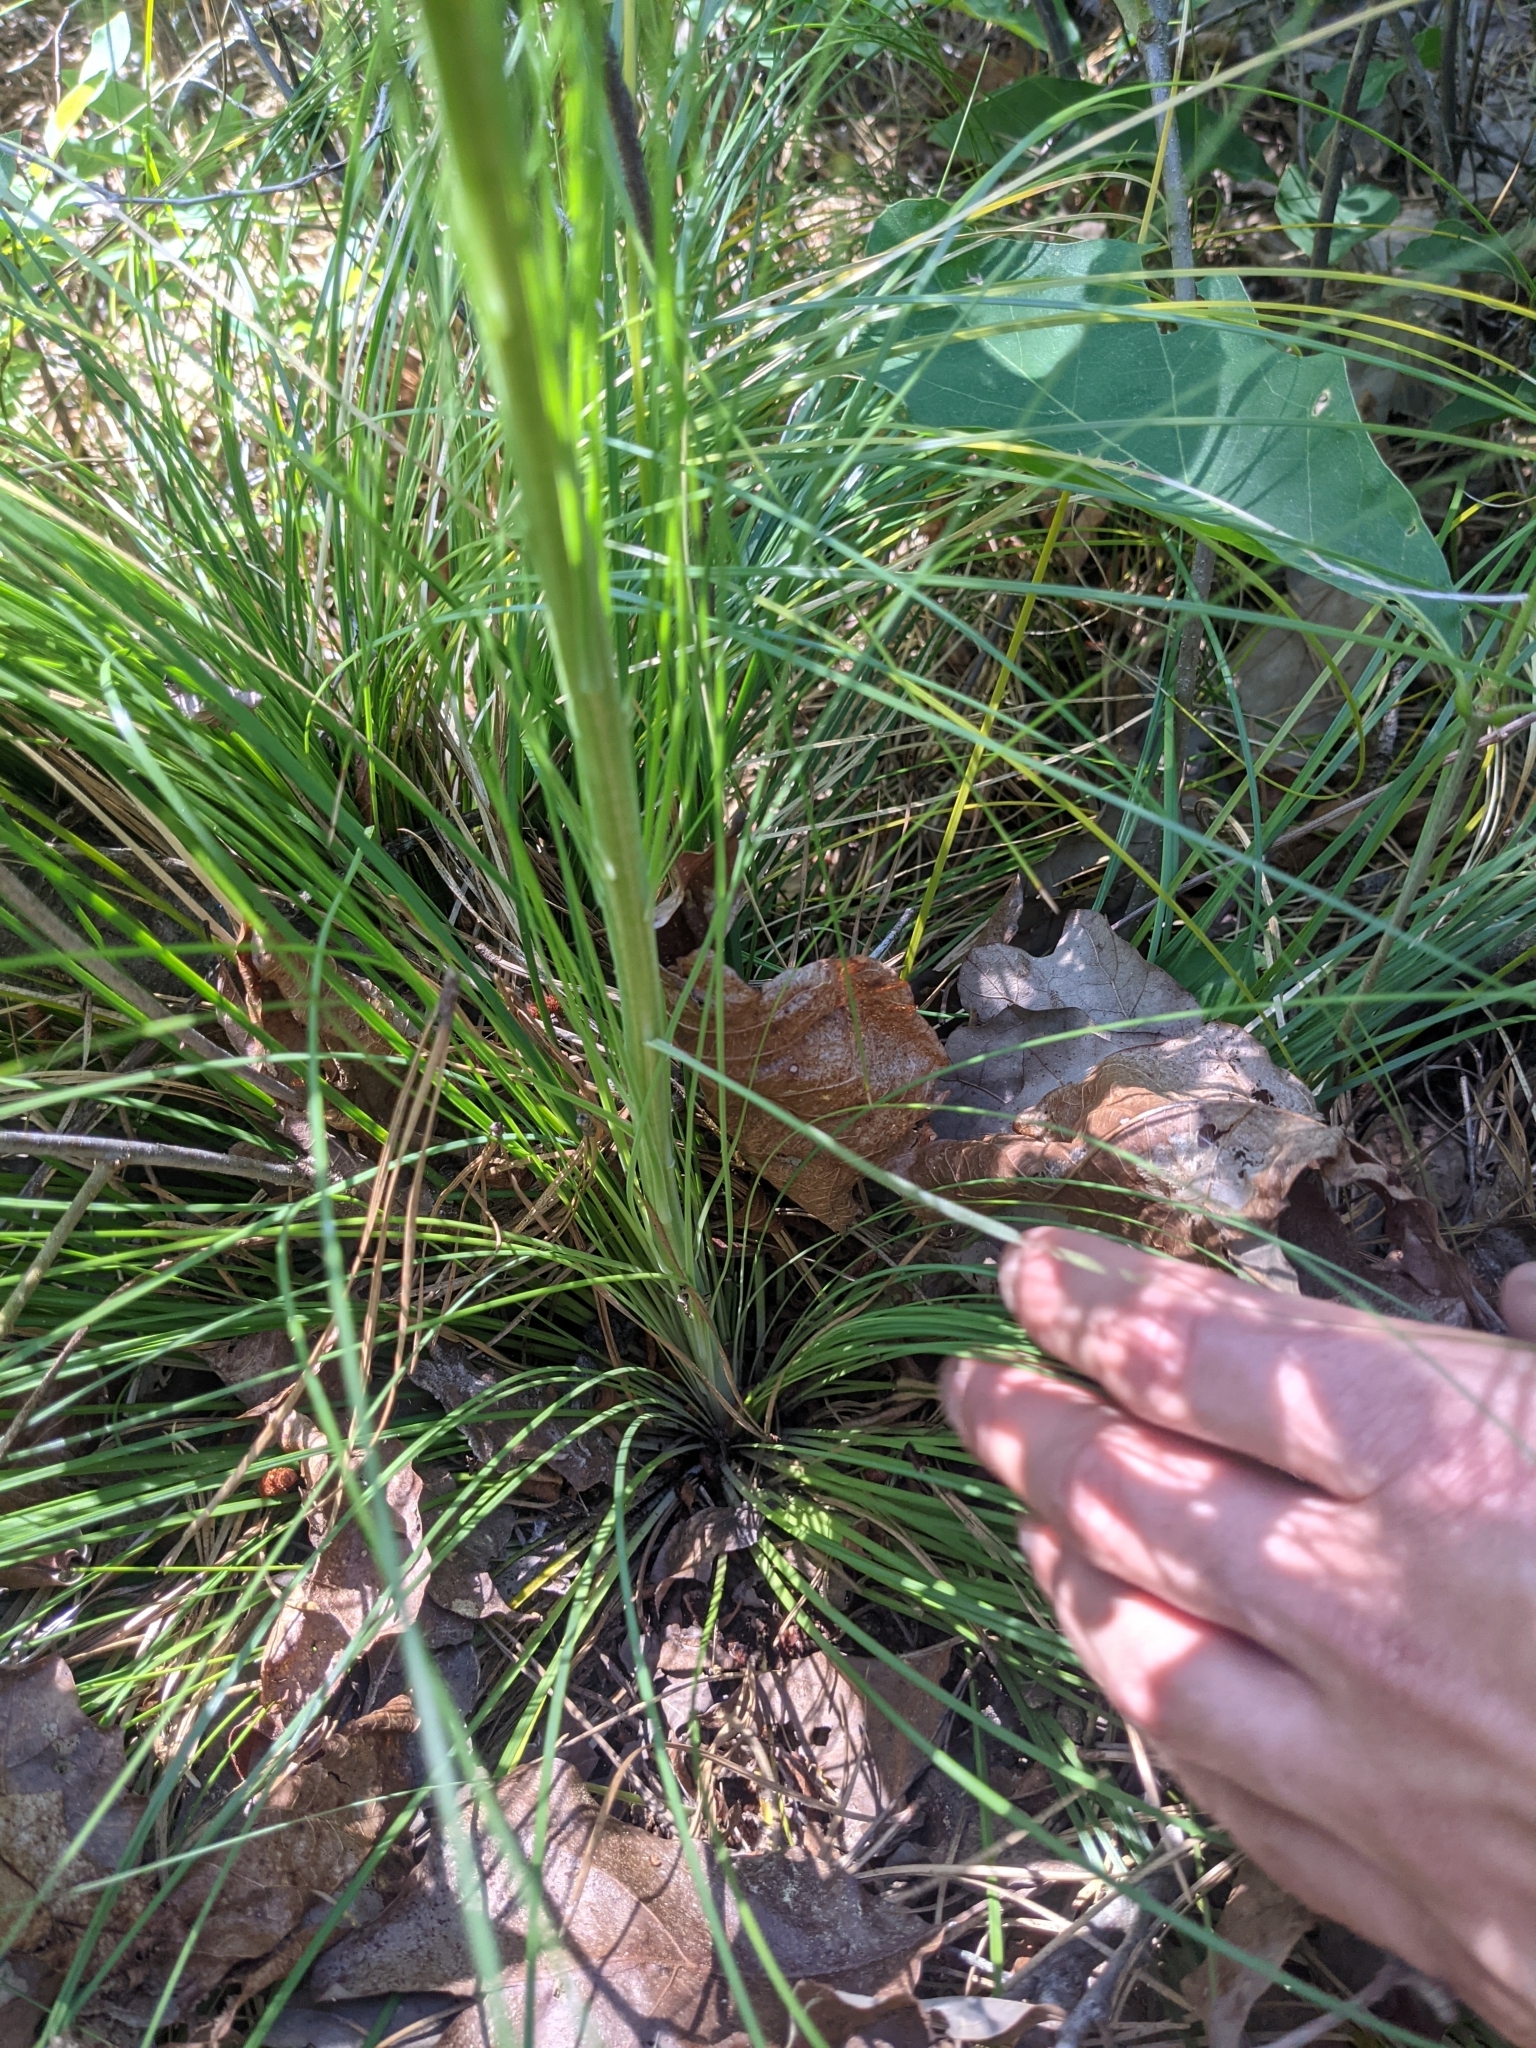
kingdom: Plantae
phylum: Tracheophyta
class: Liliopsida
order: Liliales
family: Melanthiaceae
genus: Xerophyllum
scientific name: Xerophyllum asphodeloides
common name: Mountain-asphodel
